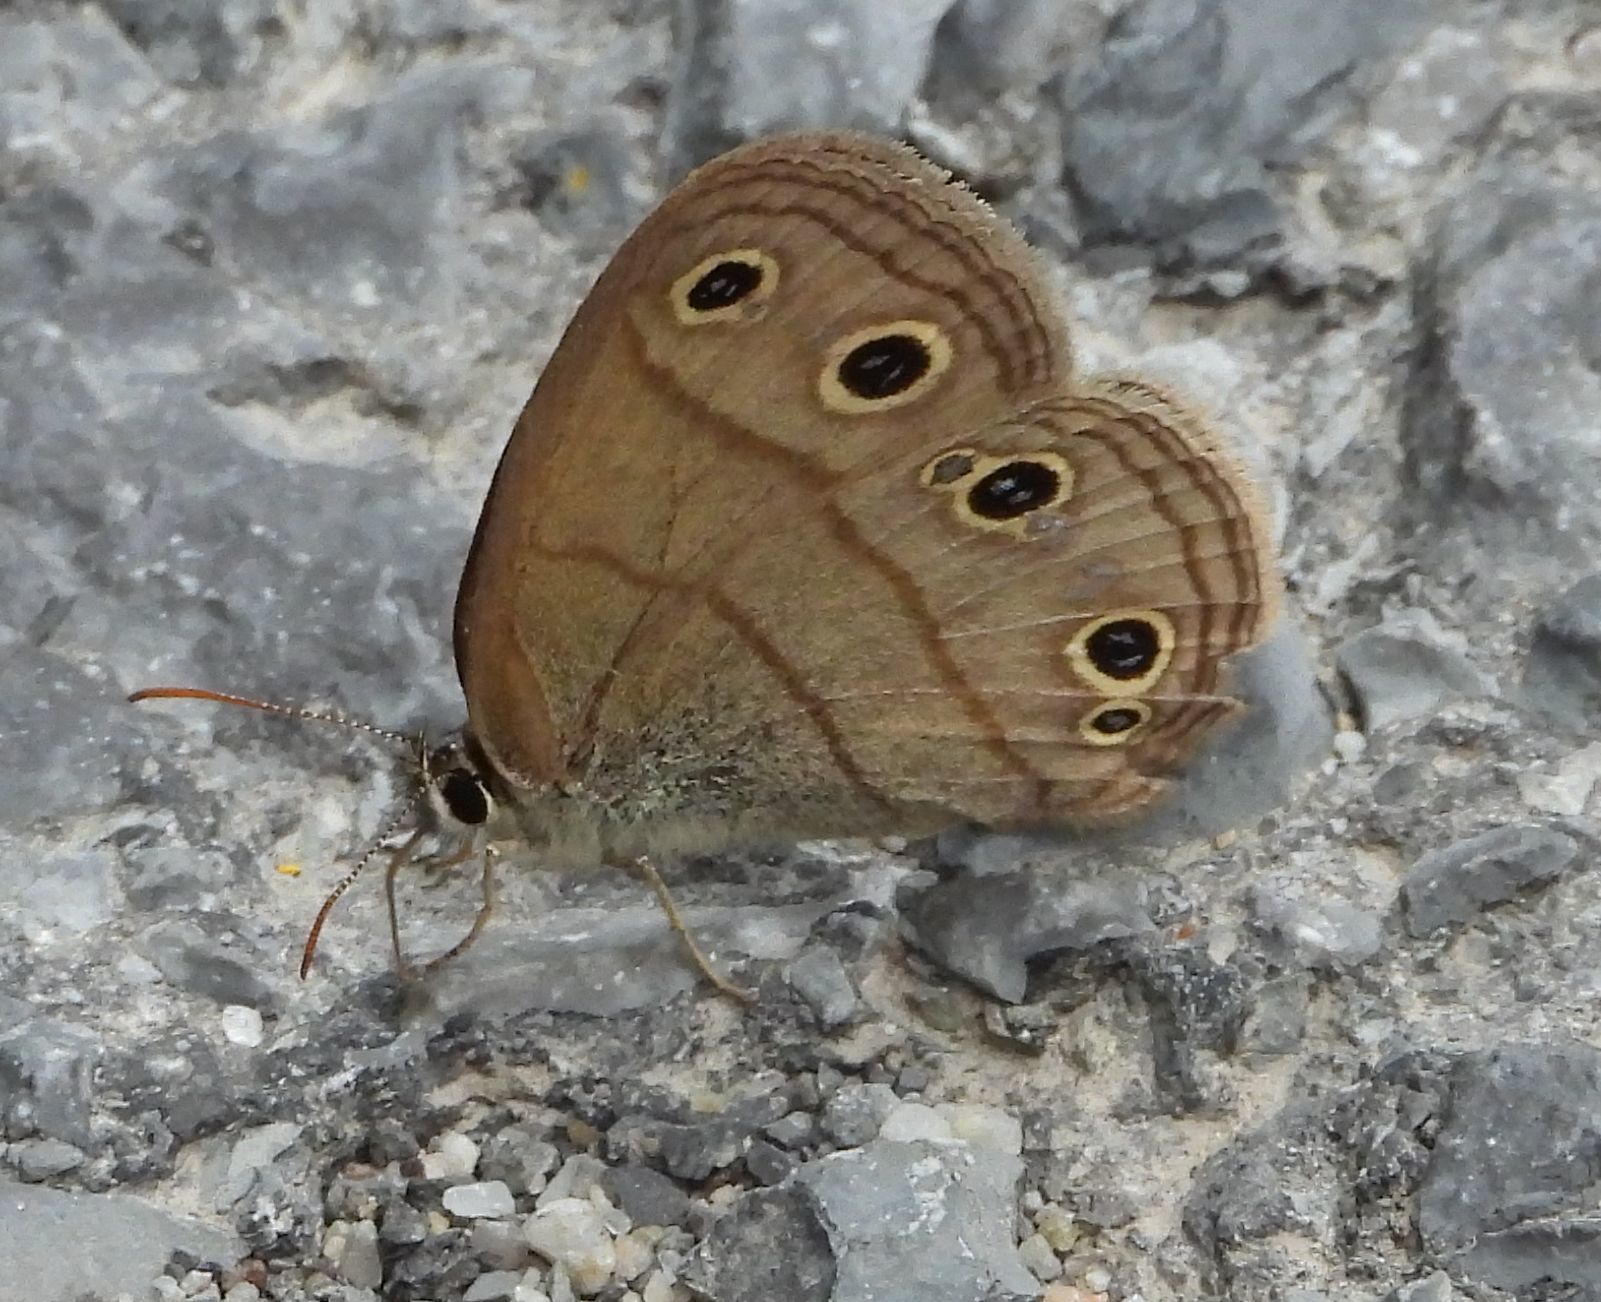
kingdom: Animalia
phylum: Arthropoda
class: Insecta
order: Lepidoptera
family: Nymphalidae
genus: Euptychia
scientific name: Euptychia cymela
